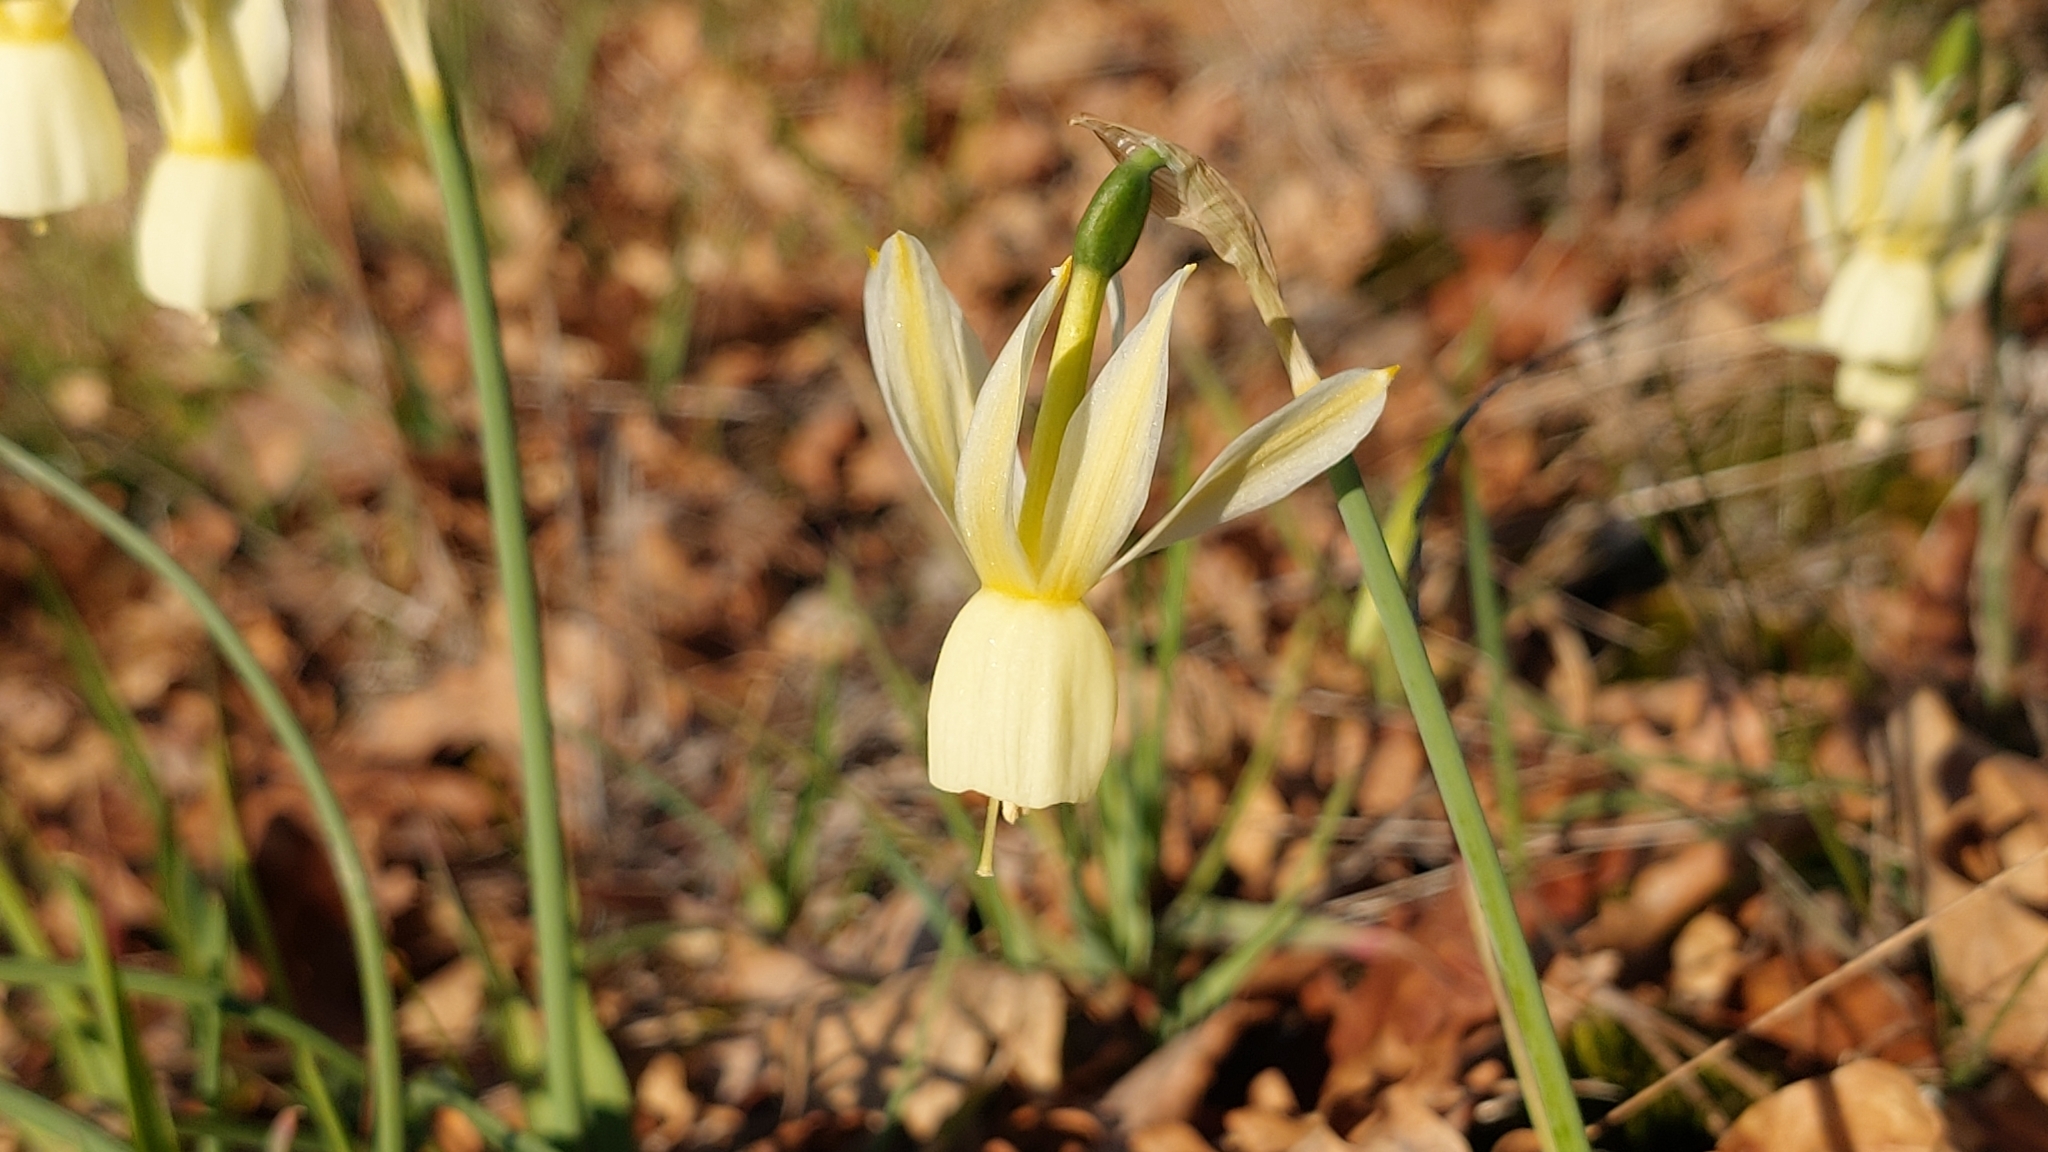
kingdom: Plantae
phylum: Tracheophyta
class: Liliopsida
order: Asparagales
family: Amaryllidaceae
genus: Narcissus
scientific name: Narcissus triandrus
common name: Angel's-tears
